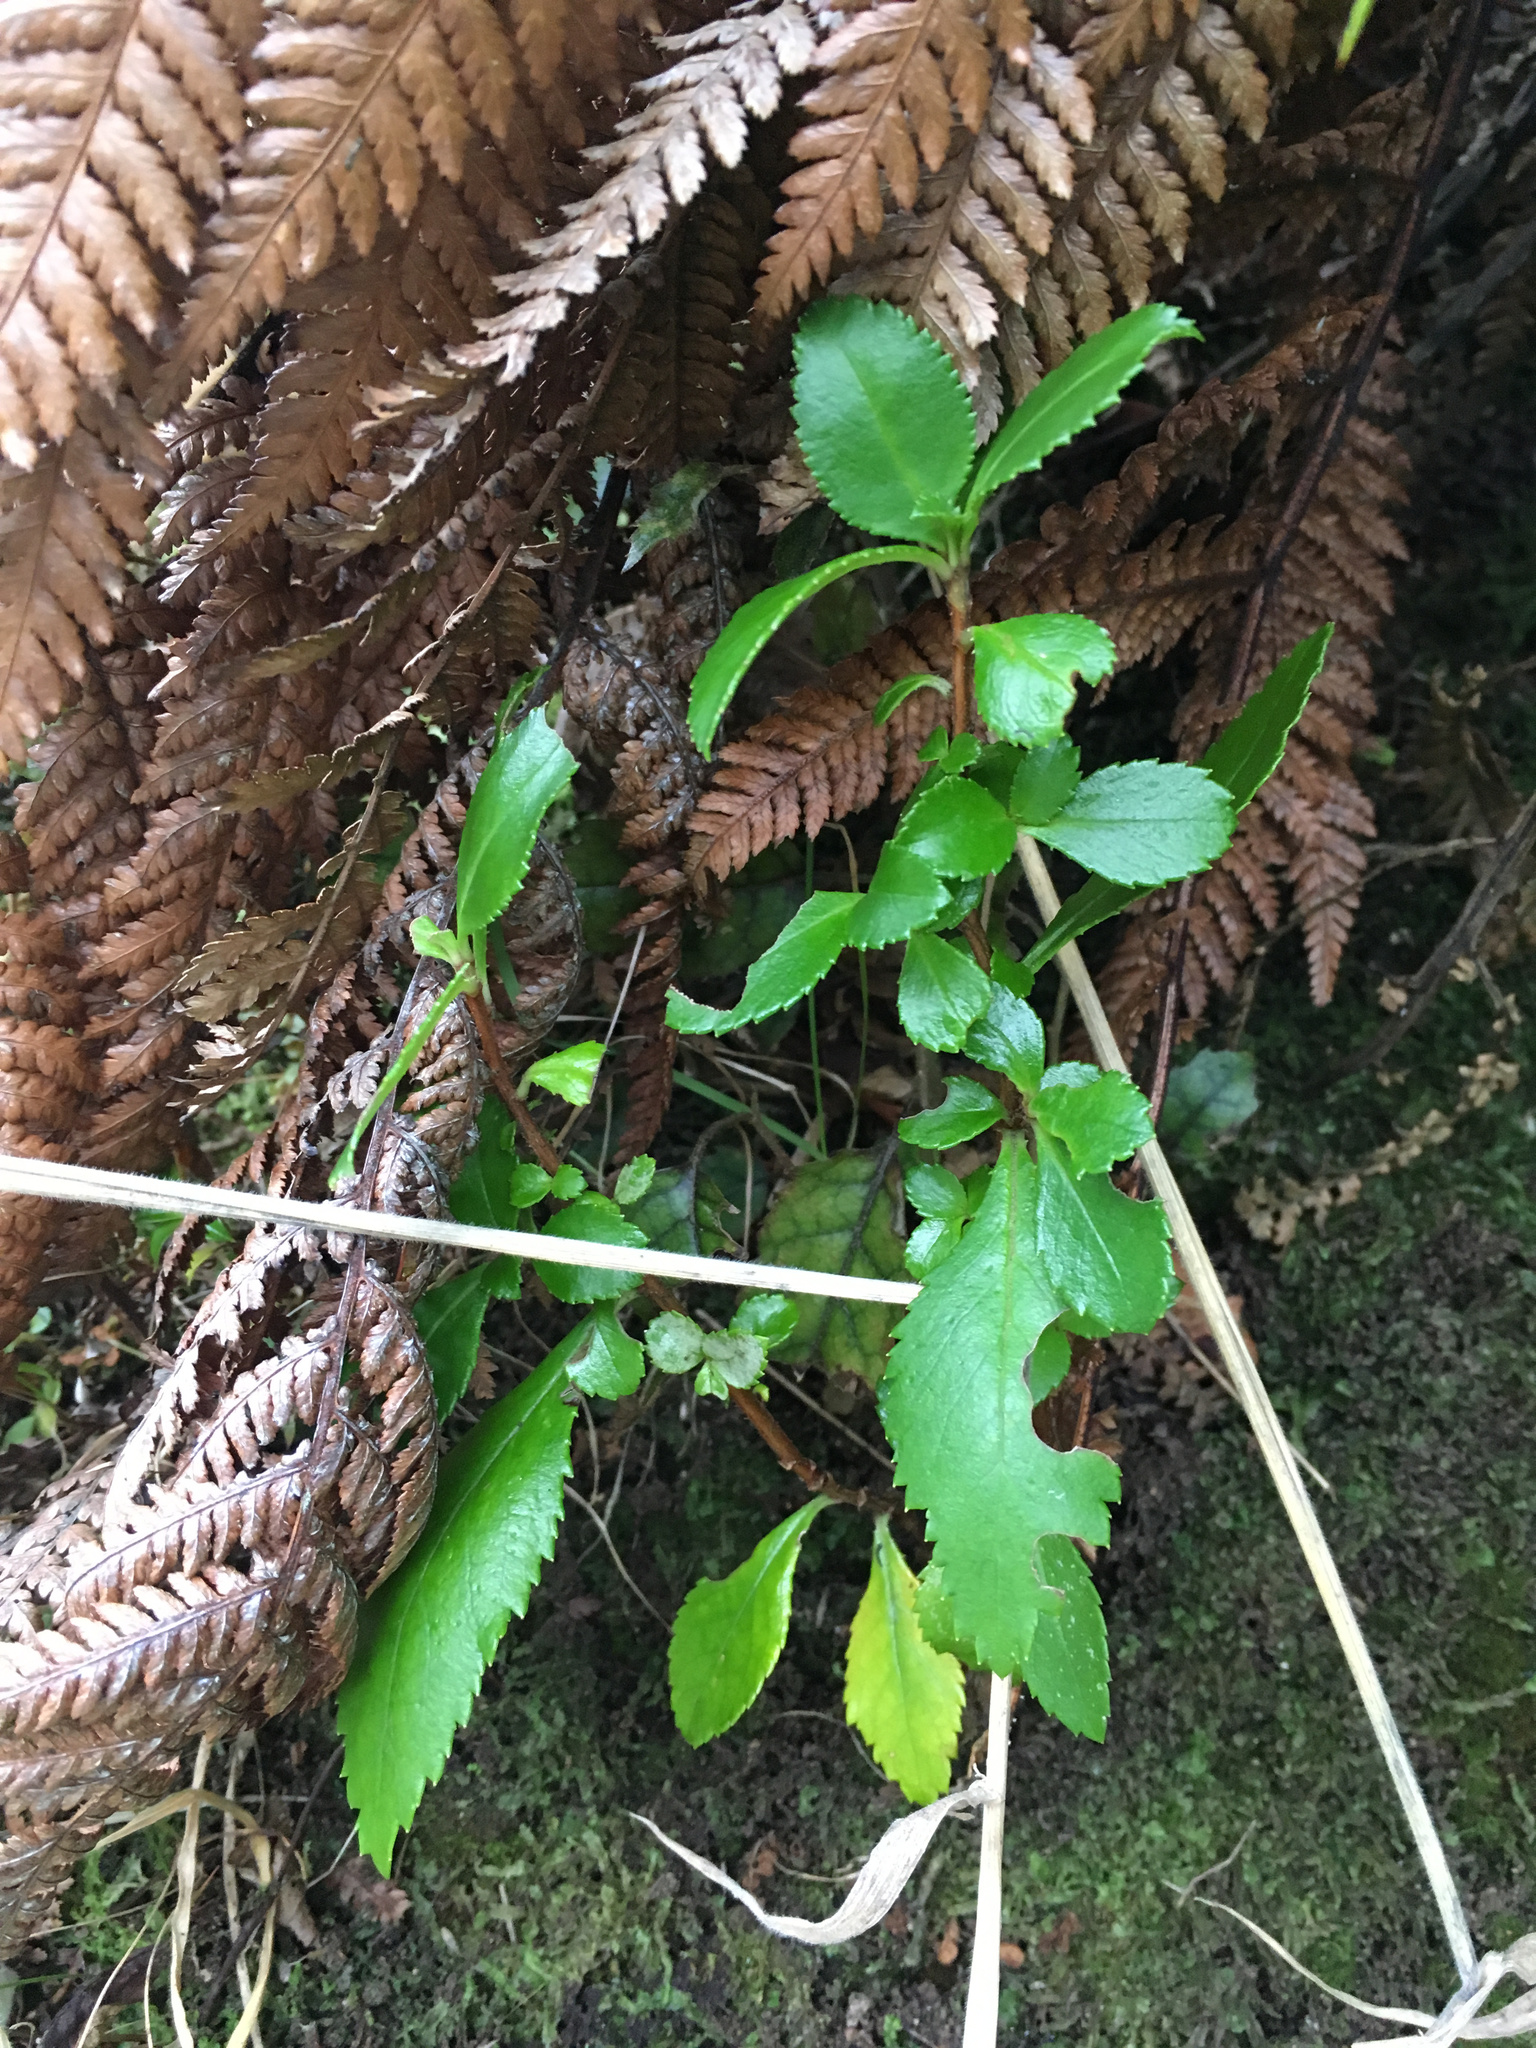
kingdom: Plantae
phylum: Tracheophyta
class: Magnoliopsida
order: Escalloniales
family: Escalloniaceae
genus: Escallonia
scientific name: Escallonia rubra
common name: Redclaws
